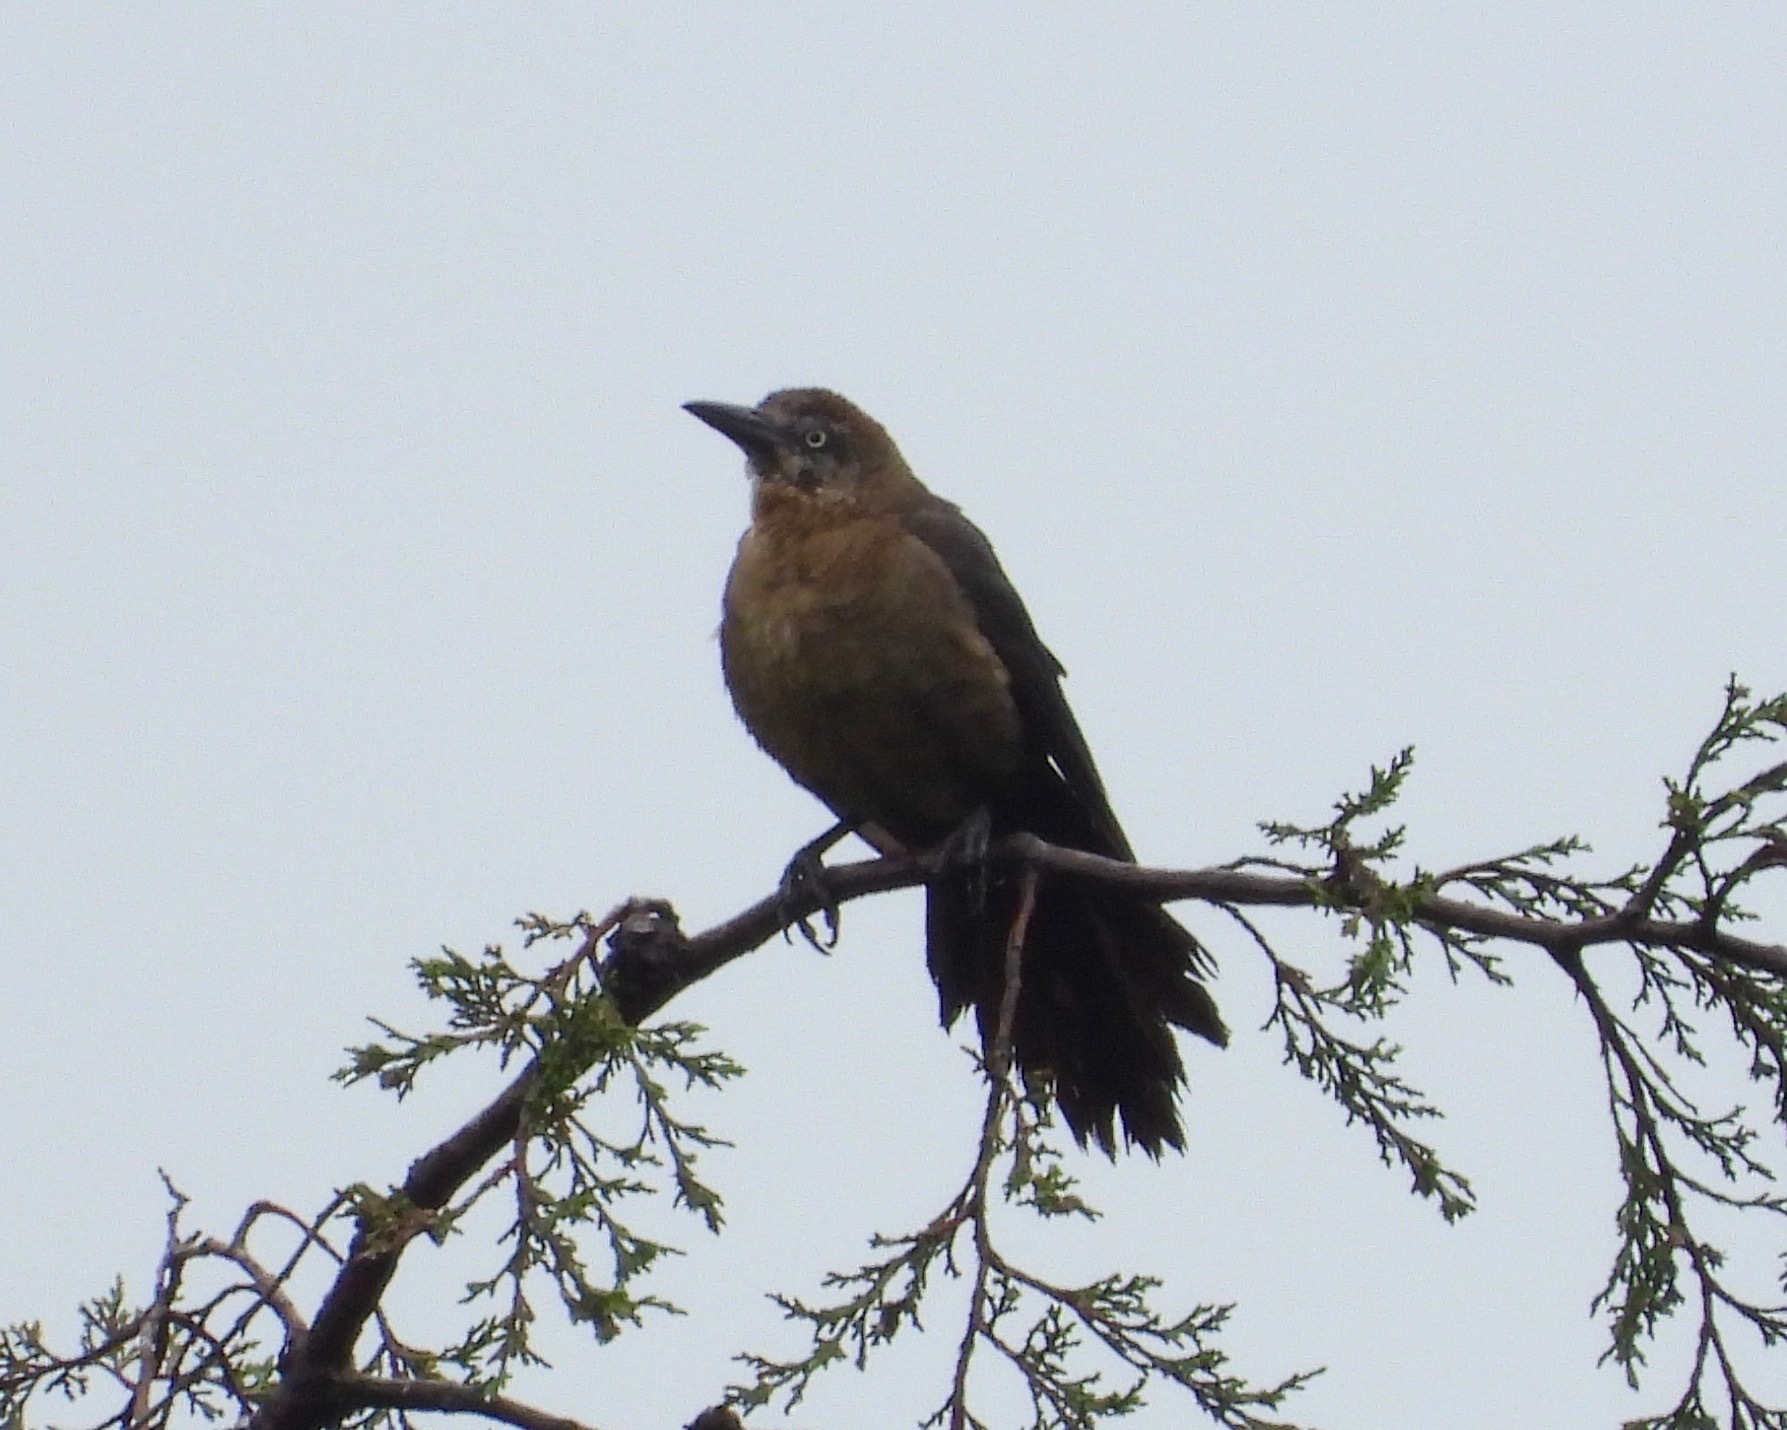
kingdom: Animalia
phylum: Chordata
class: Aves
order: Passeriformes
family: Icteridae
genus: Quiscalus
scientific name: Quiscalus mexicanus
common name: Great-tailed grackle
